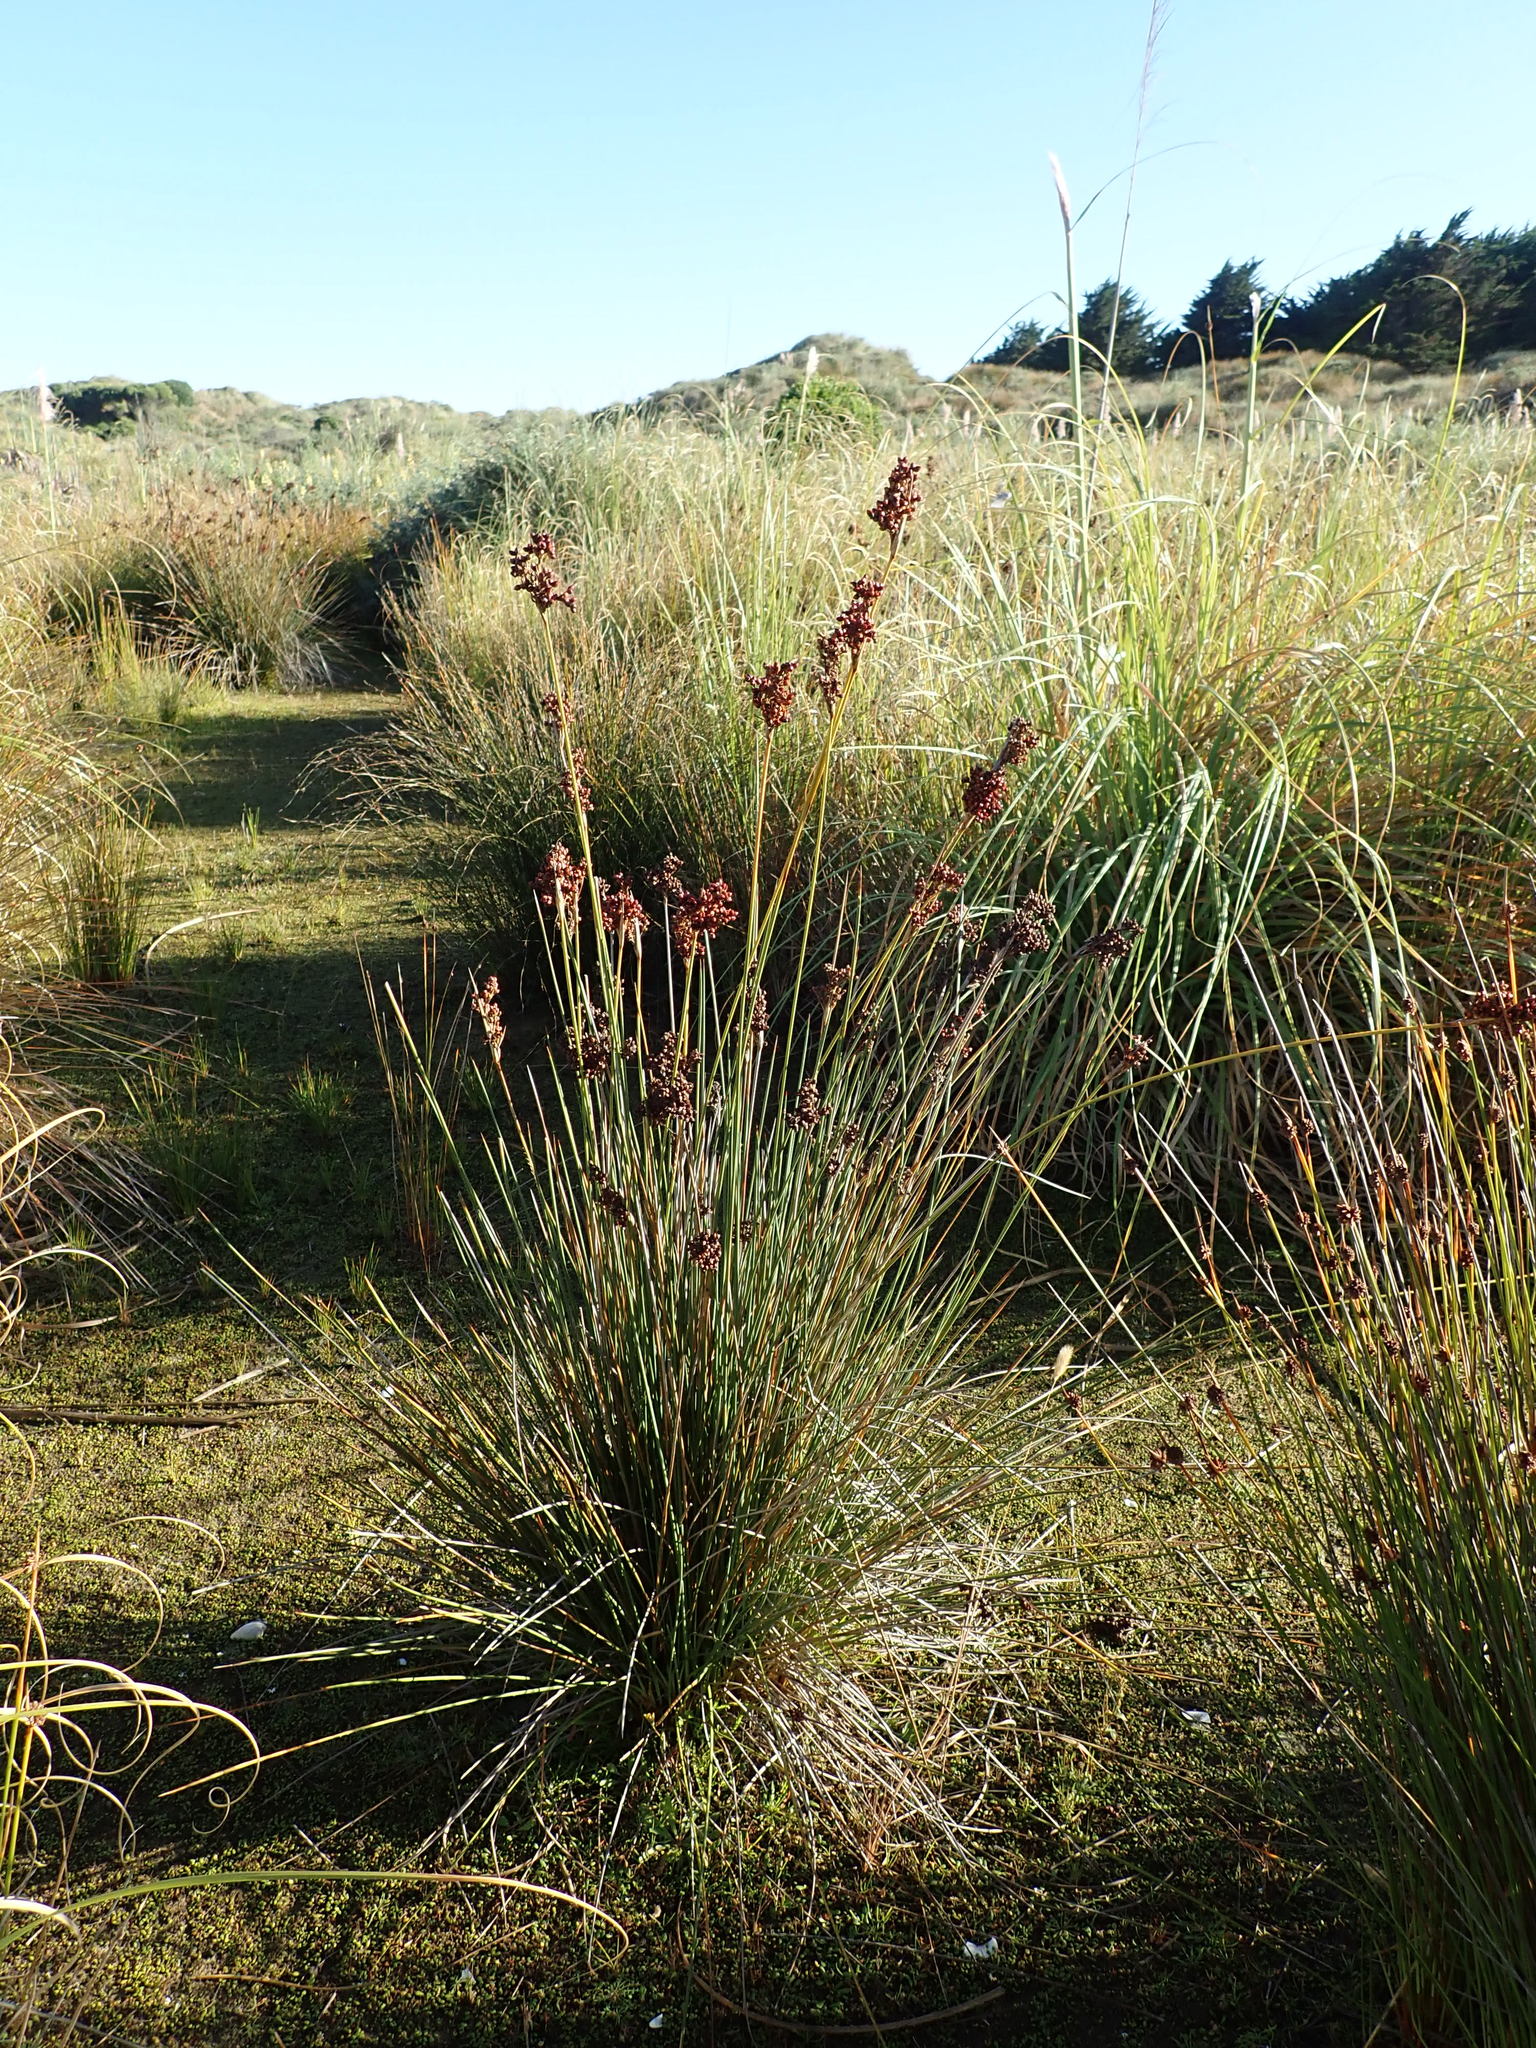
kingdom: Plantae
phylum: Tracheophyta
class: Liliopsida
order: Poales
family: Juncaceae
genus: Juncus
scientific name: Juncus acutus
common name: Sharp rush
